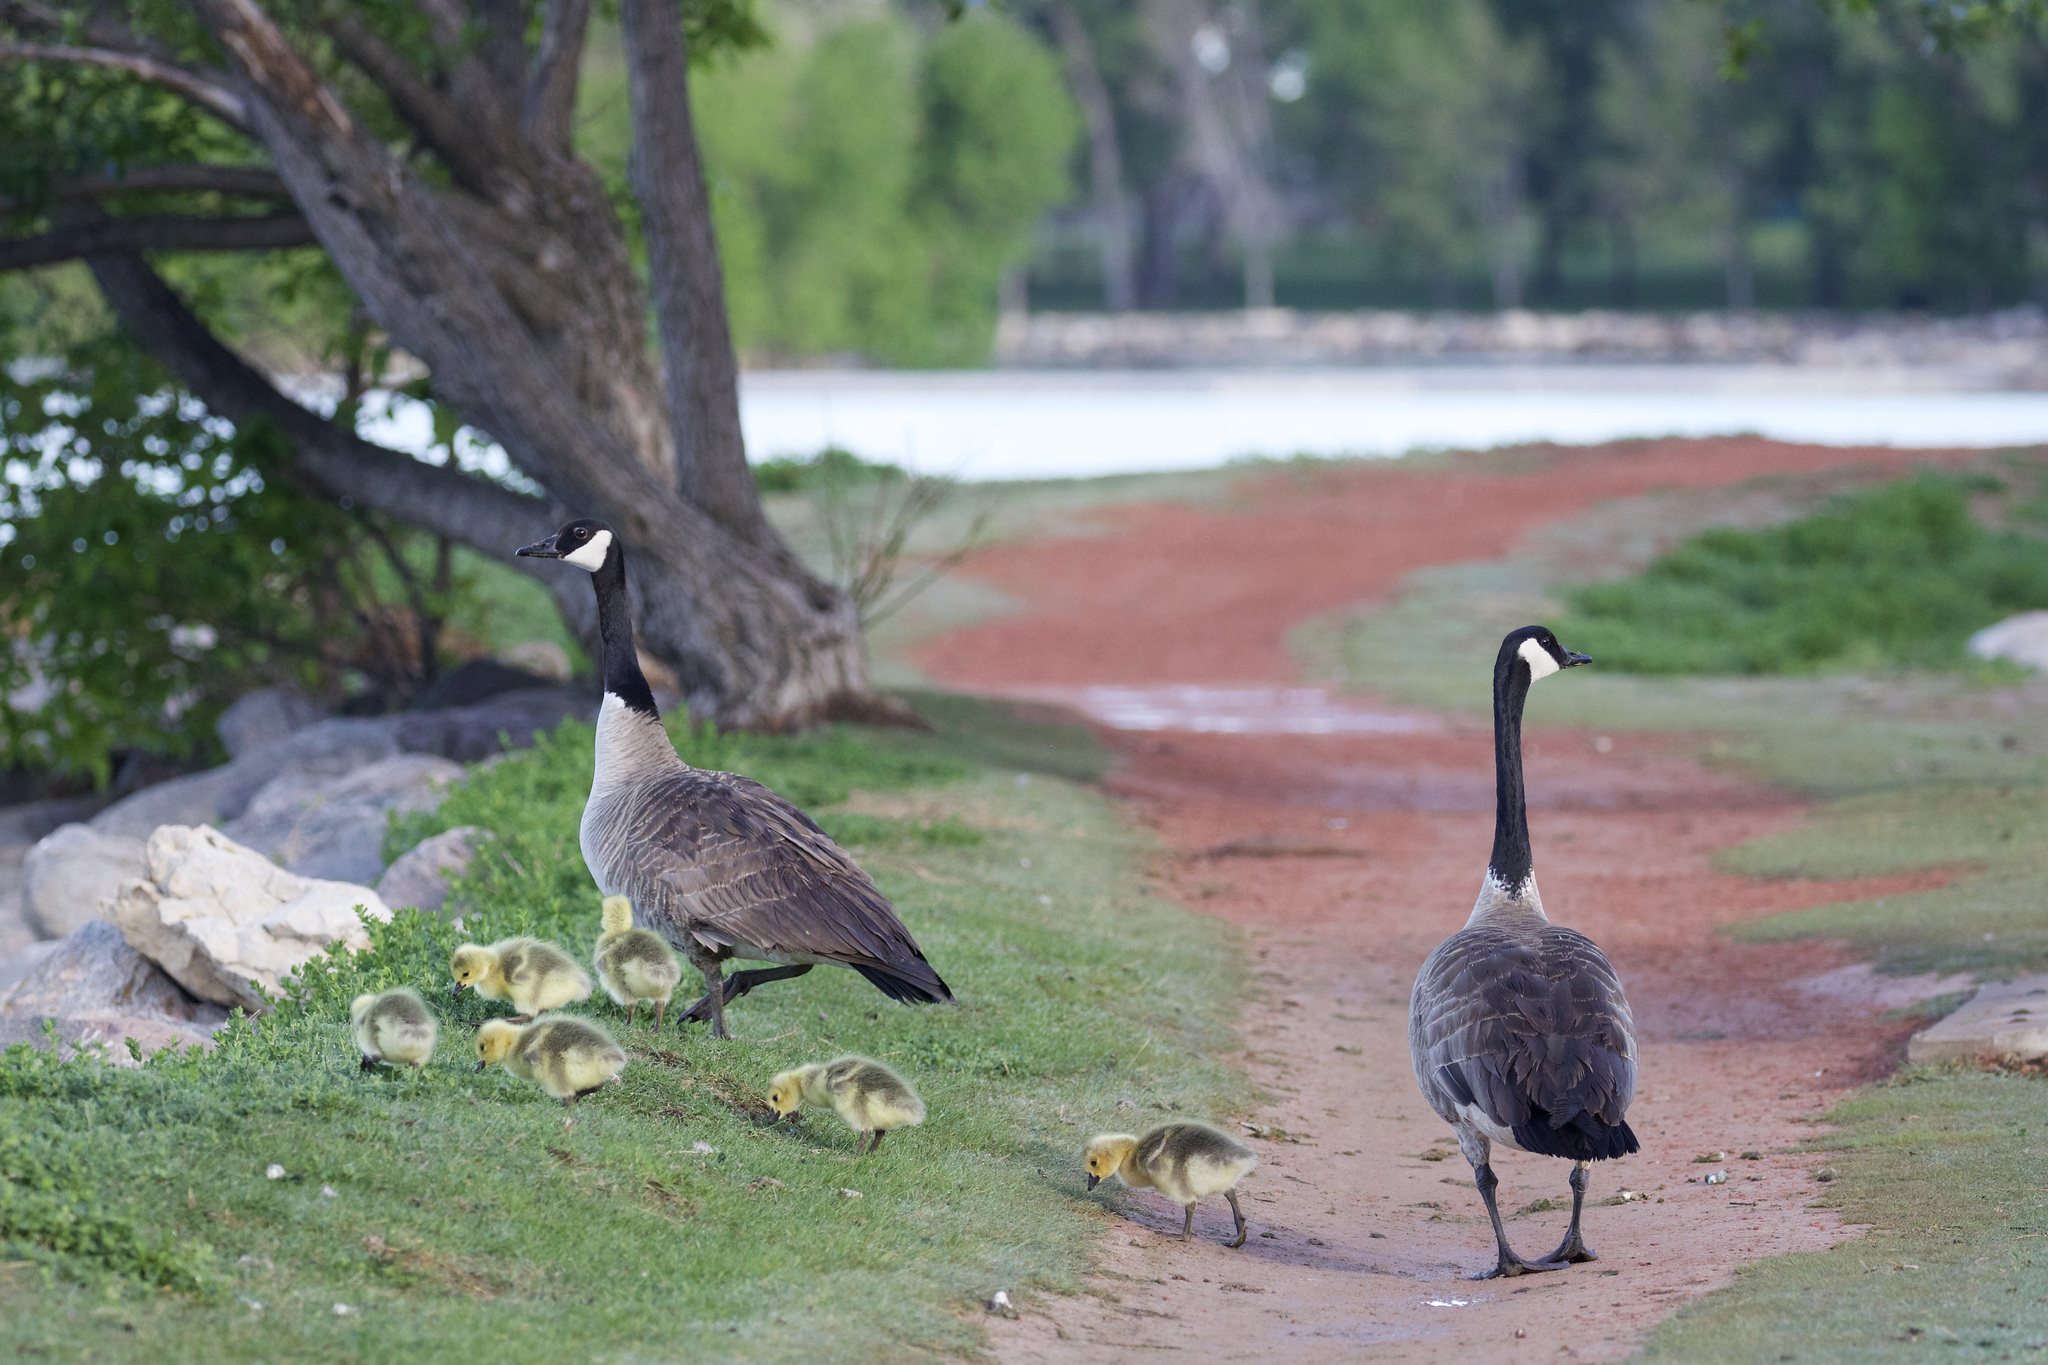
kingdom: Animalia
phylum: Chordata
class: Aves
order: Anseriformes
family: Anatidae
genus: Branta
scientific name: Branta canadensis
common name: Canada goose
